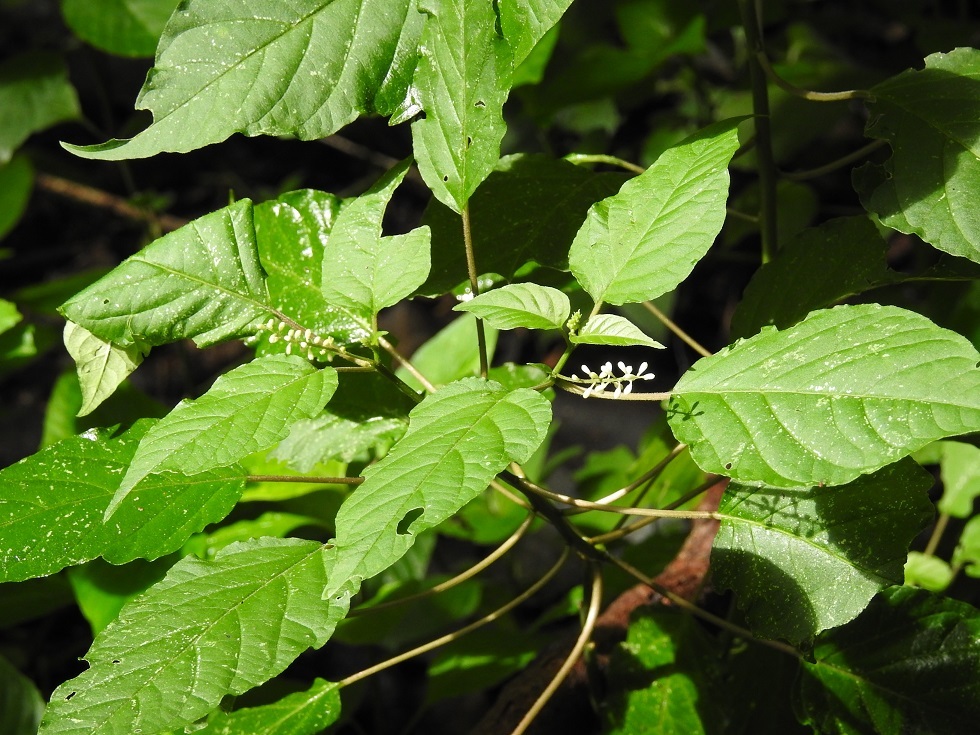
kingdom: Plantae
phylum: Tracheophyta
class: Magnoliopsida
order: Caryophyllales
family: Phytolaccaceae
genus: Rivina
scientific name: Rivina humilis
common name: Rougeplant
